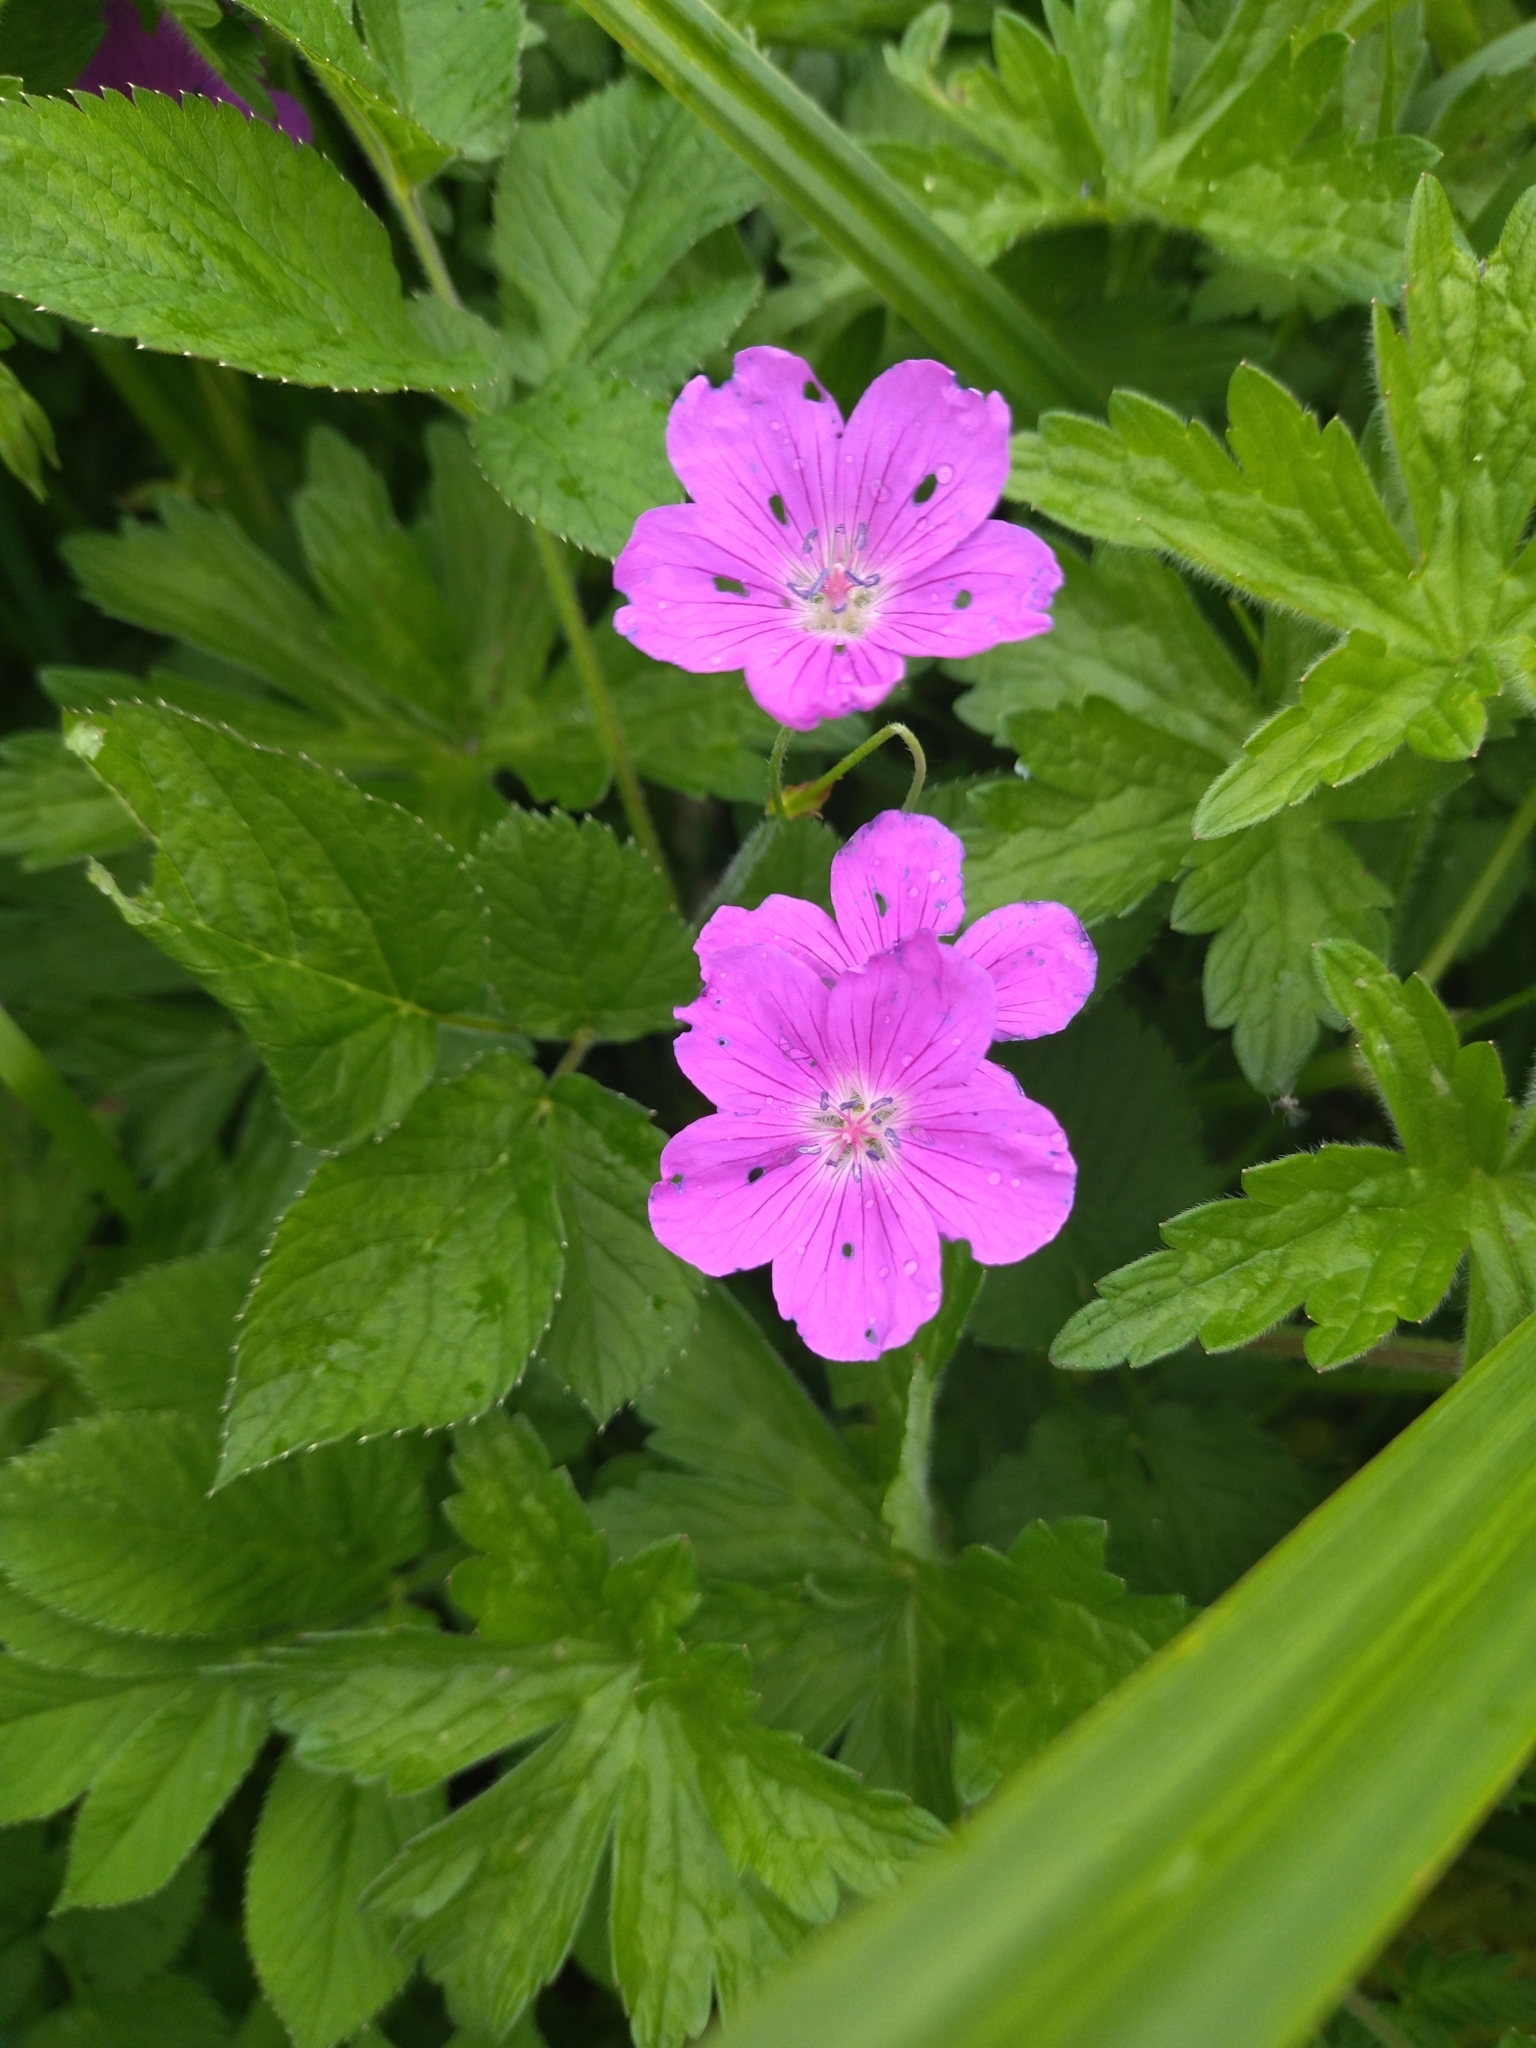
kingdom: Plantae
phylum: Tracheophyta
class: Magnoliopsida
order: Geraniales
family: Geraniaceae
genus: Geranium
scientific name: Geranium palustre
